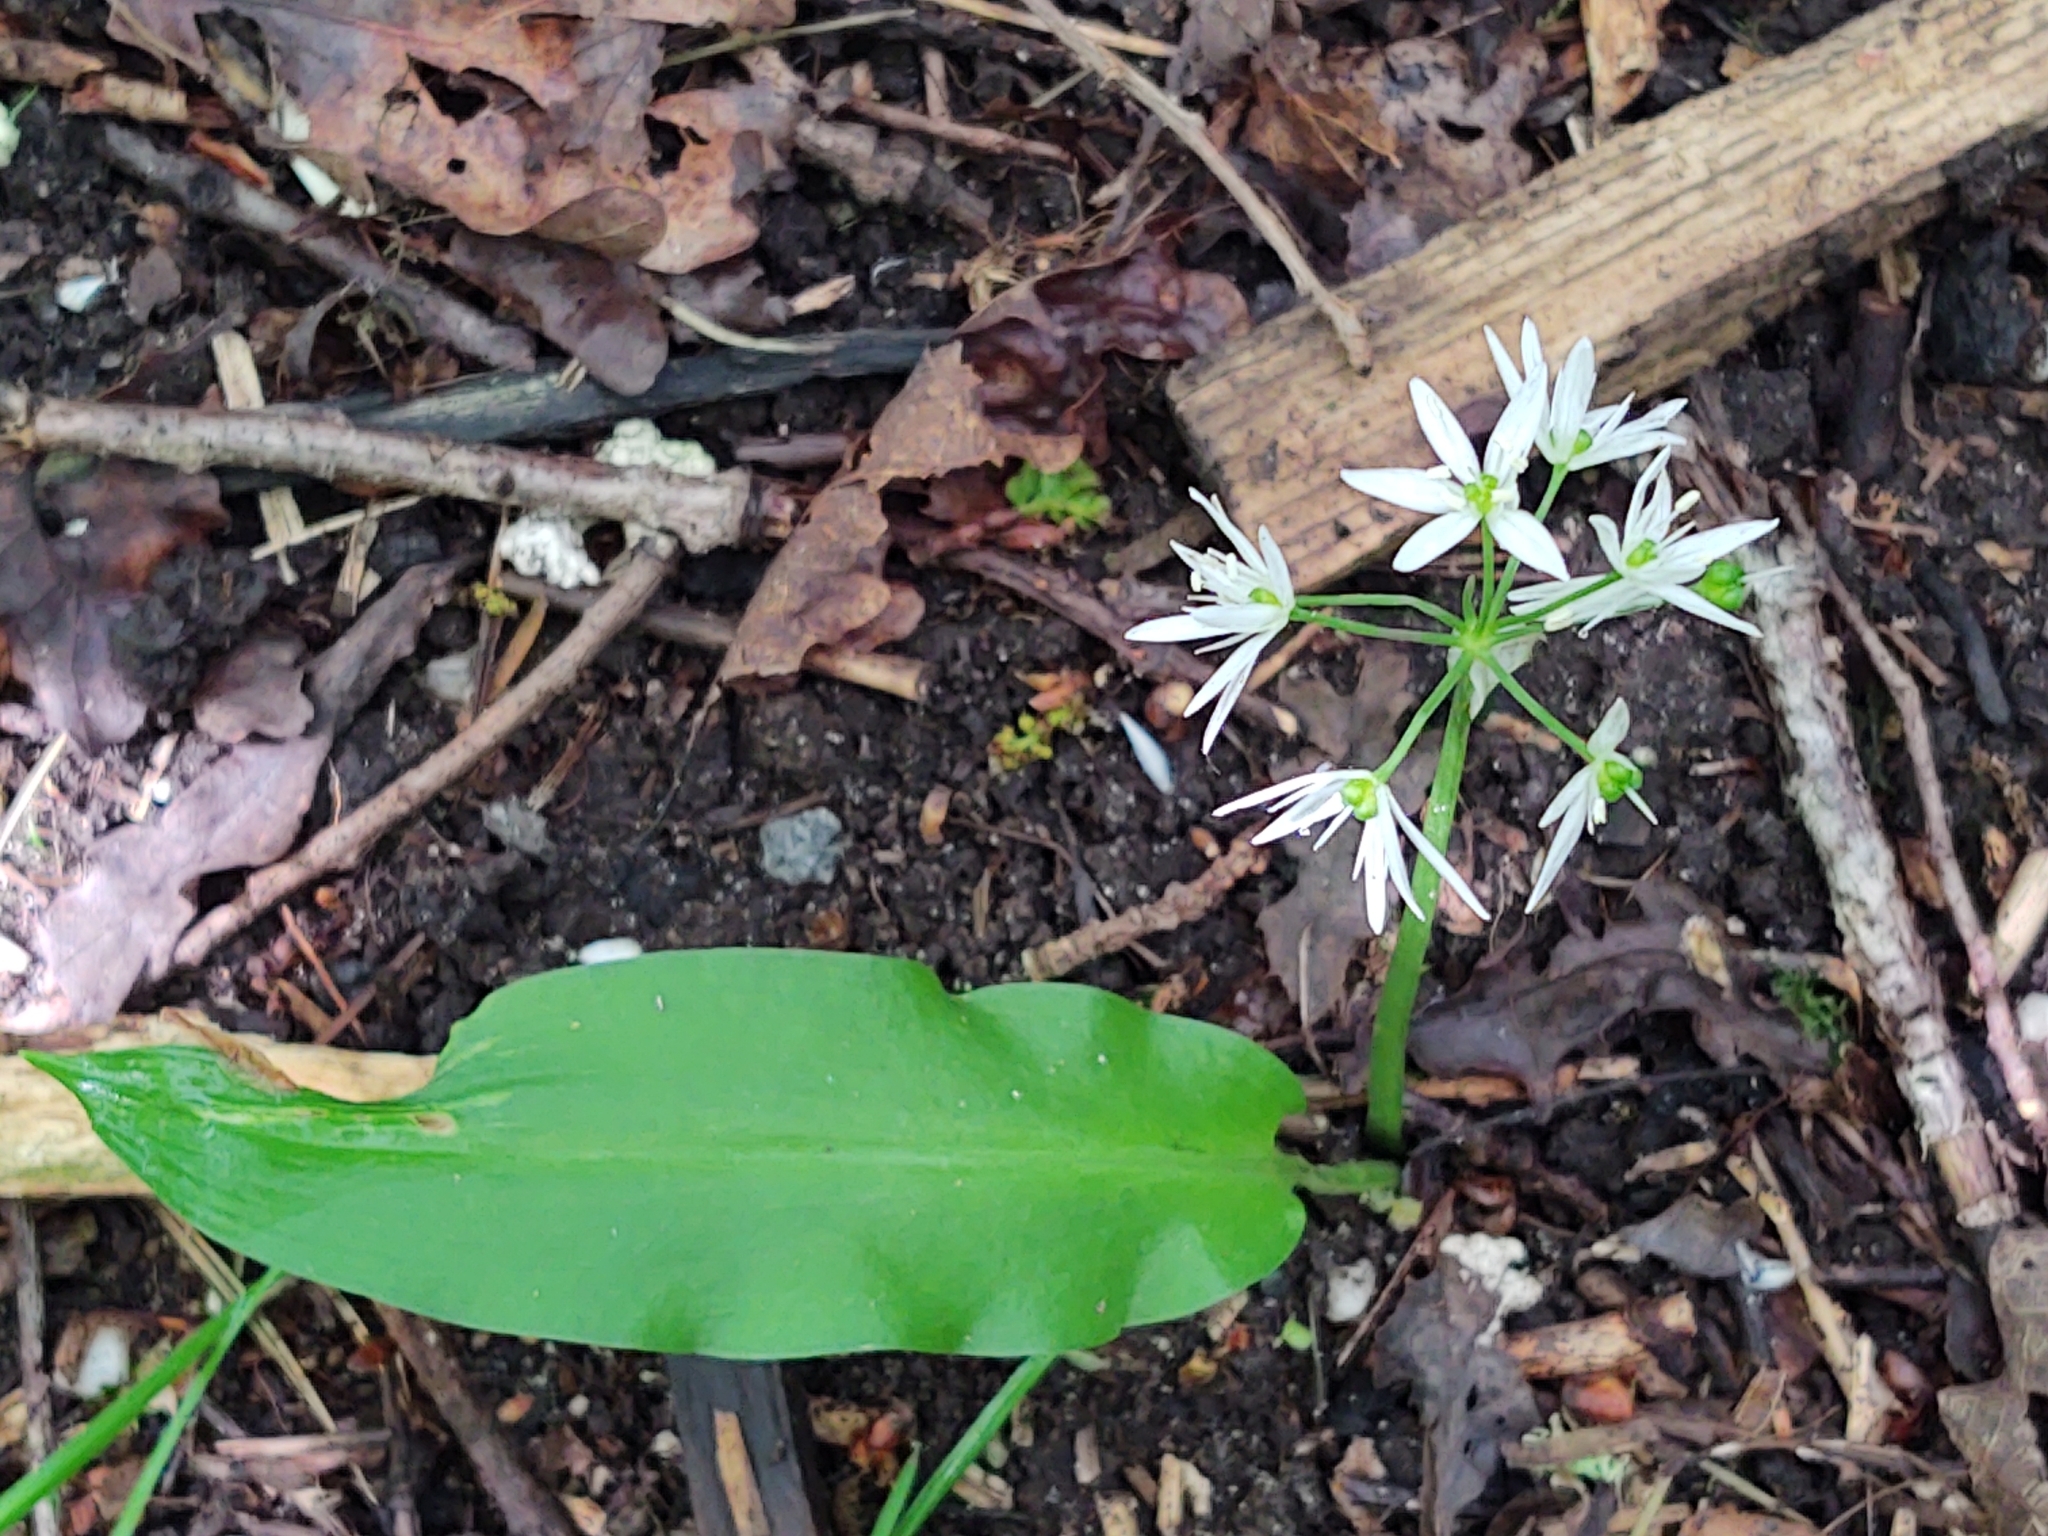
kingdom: Plantae
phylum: Tracheophyta
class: Liliopsida
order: Asparagales
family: Amaryllidaceae
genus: Allium
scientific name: Allium ursinum
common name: Ramsons
